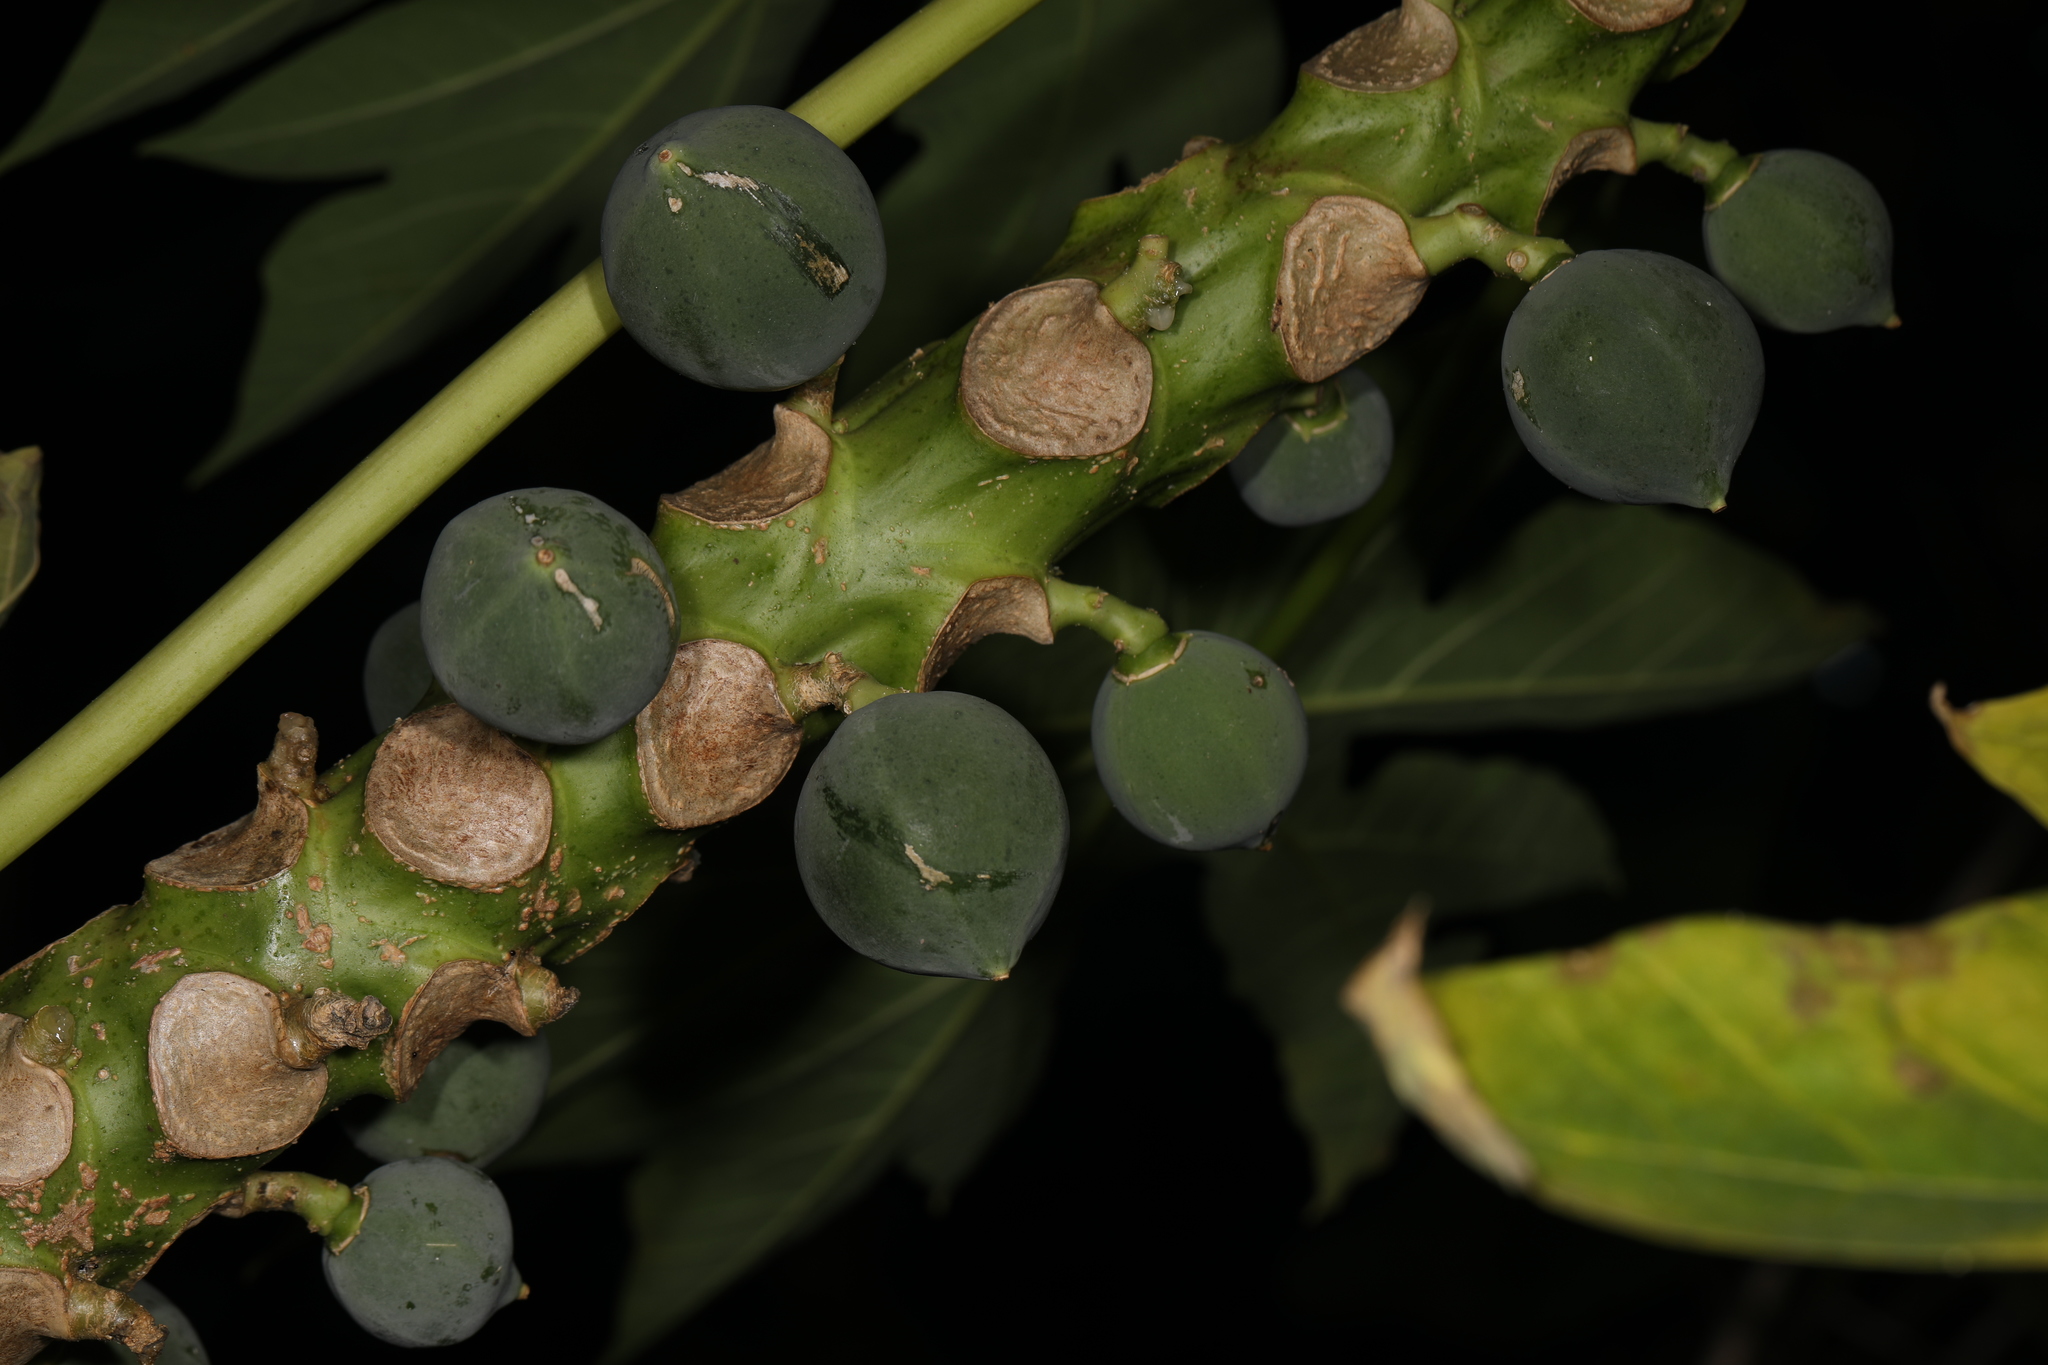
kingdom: Plantae
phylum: Tracheophyta
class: Magnoliopsida
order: Brassicales
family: Caricaceae
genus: Carica
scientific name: Carica papaya
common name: Papaya
